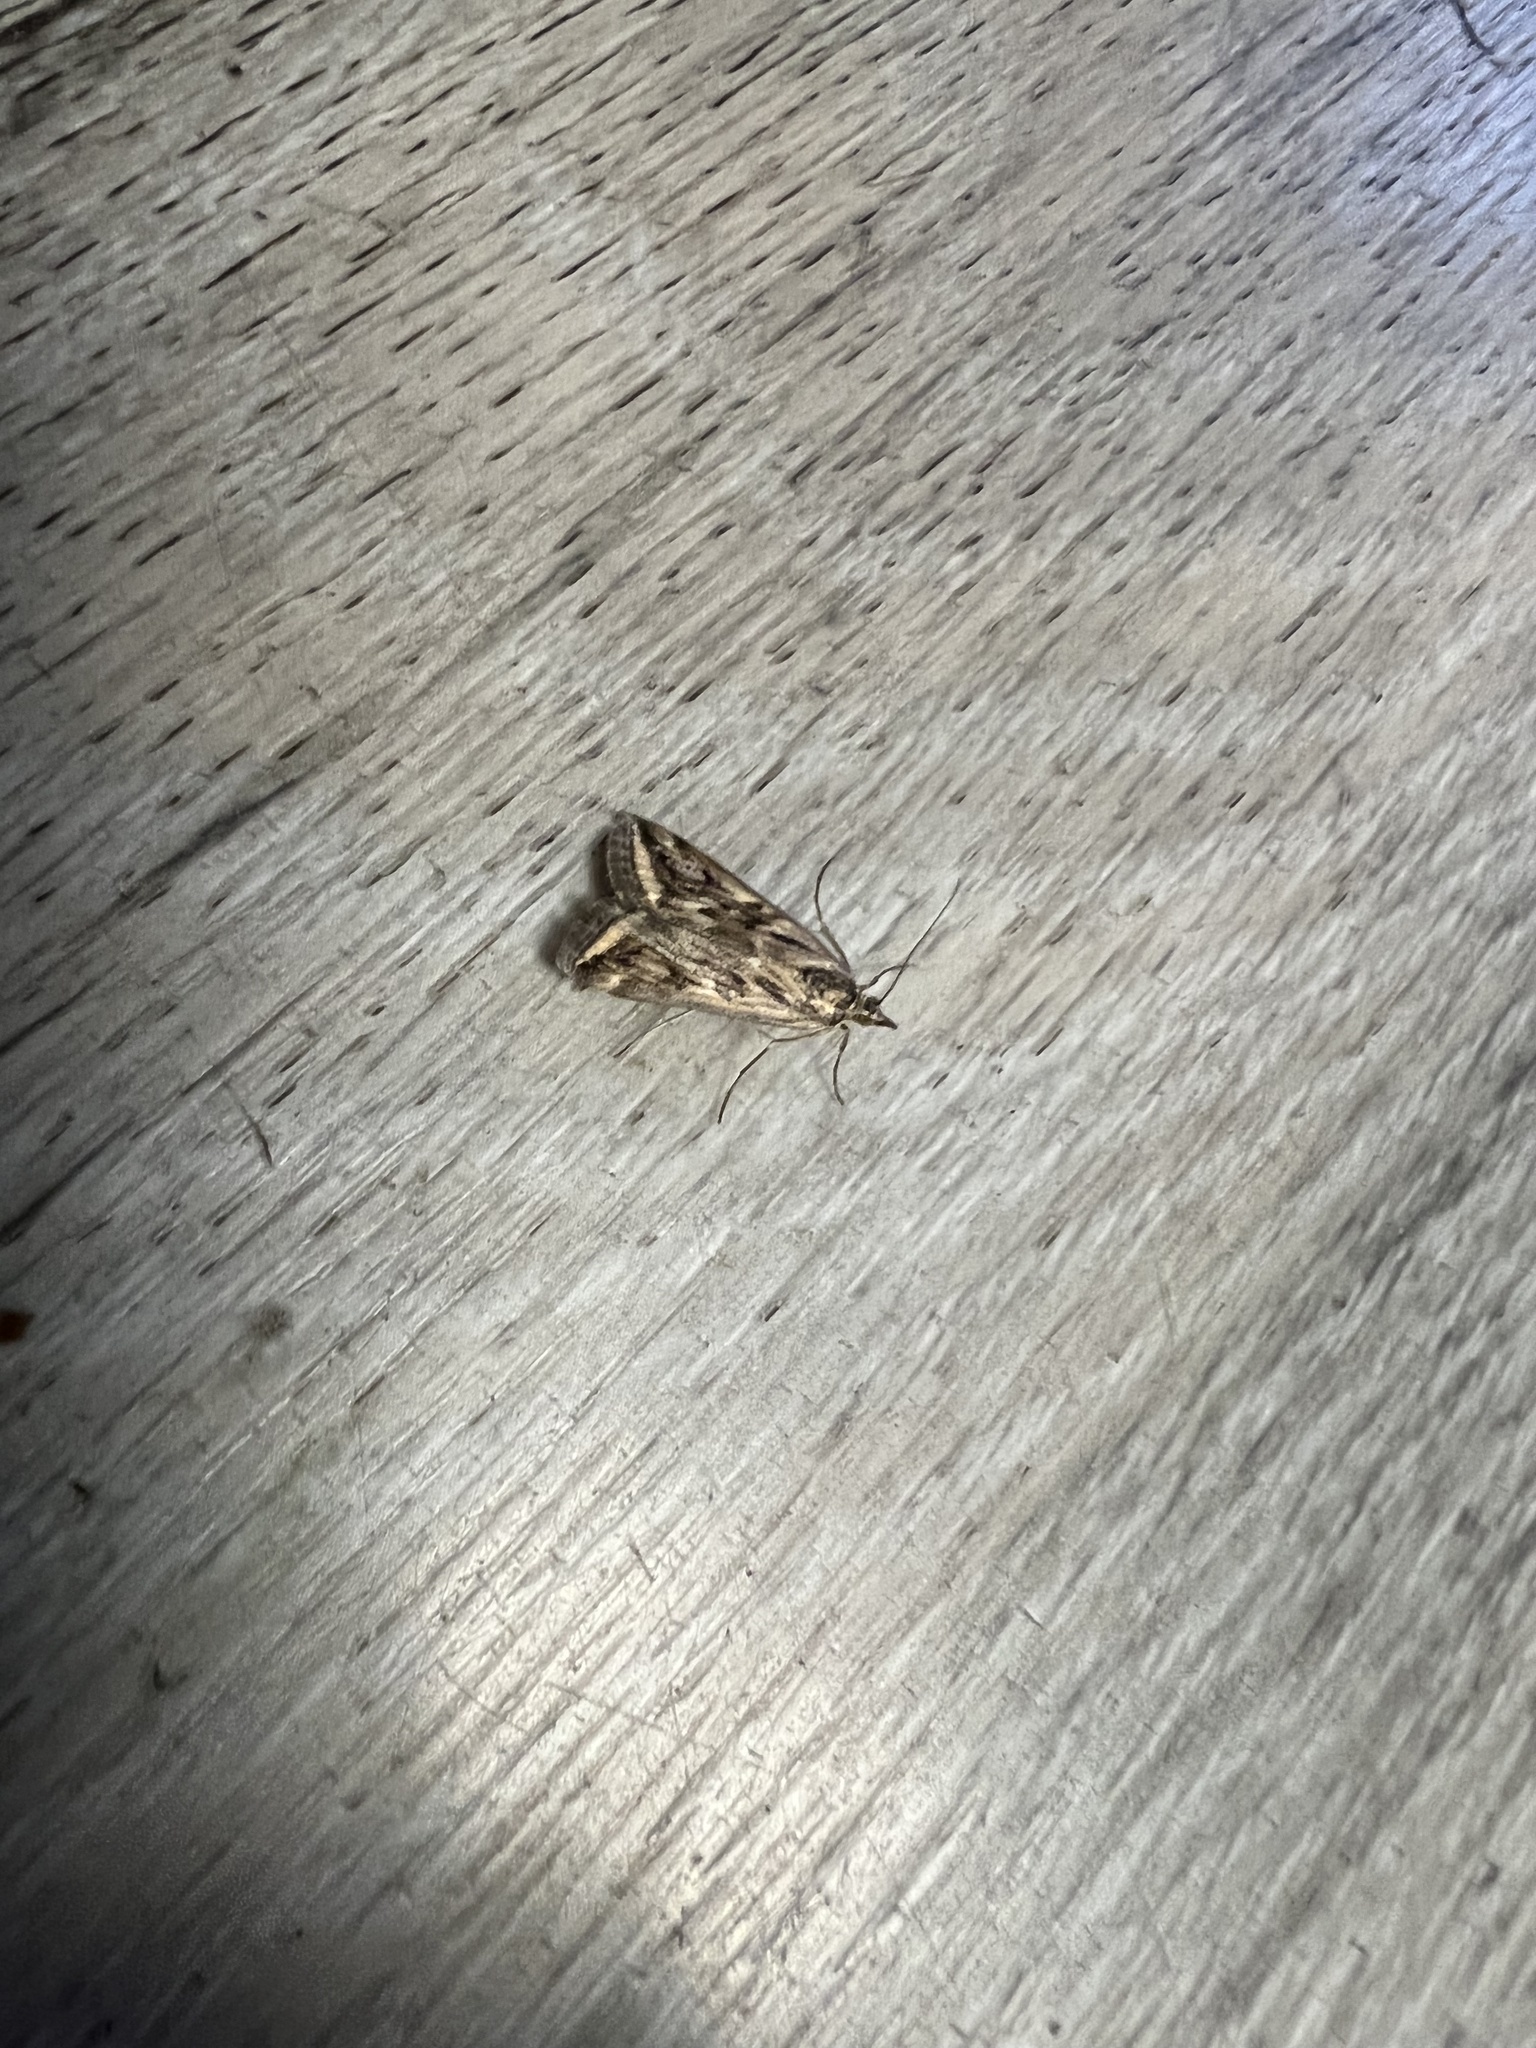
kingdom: Animalia
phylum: Arthropoda
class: Insecta
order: Lepidoptera
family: Crambidae
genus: Loxostege
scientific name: Loxostege cereralis
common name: Alfalfa webworm moth
